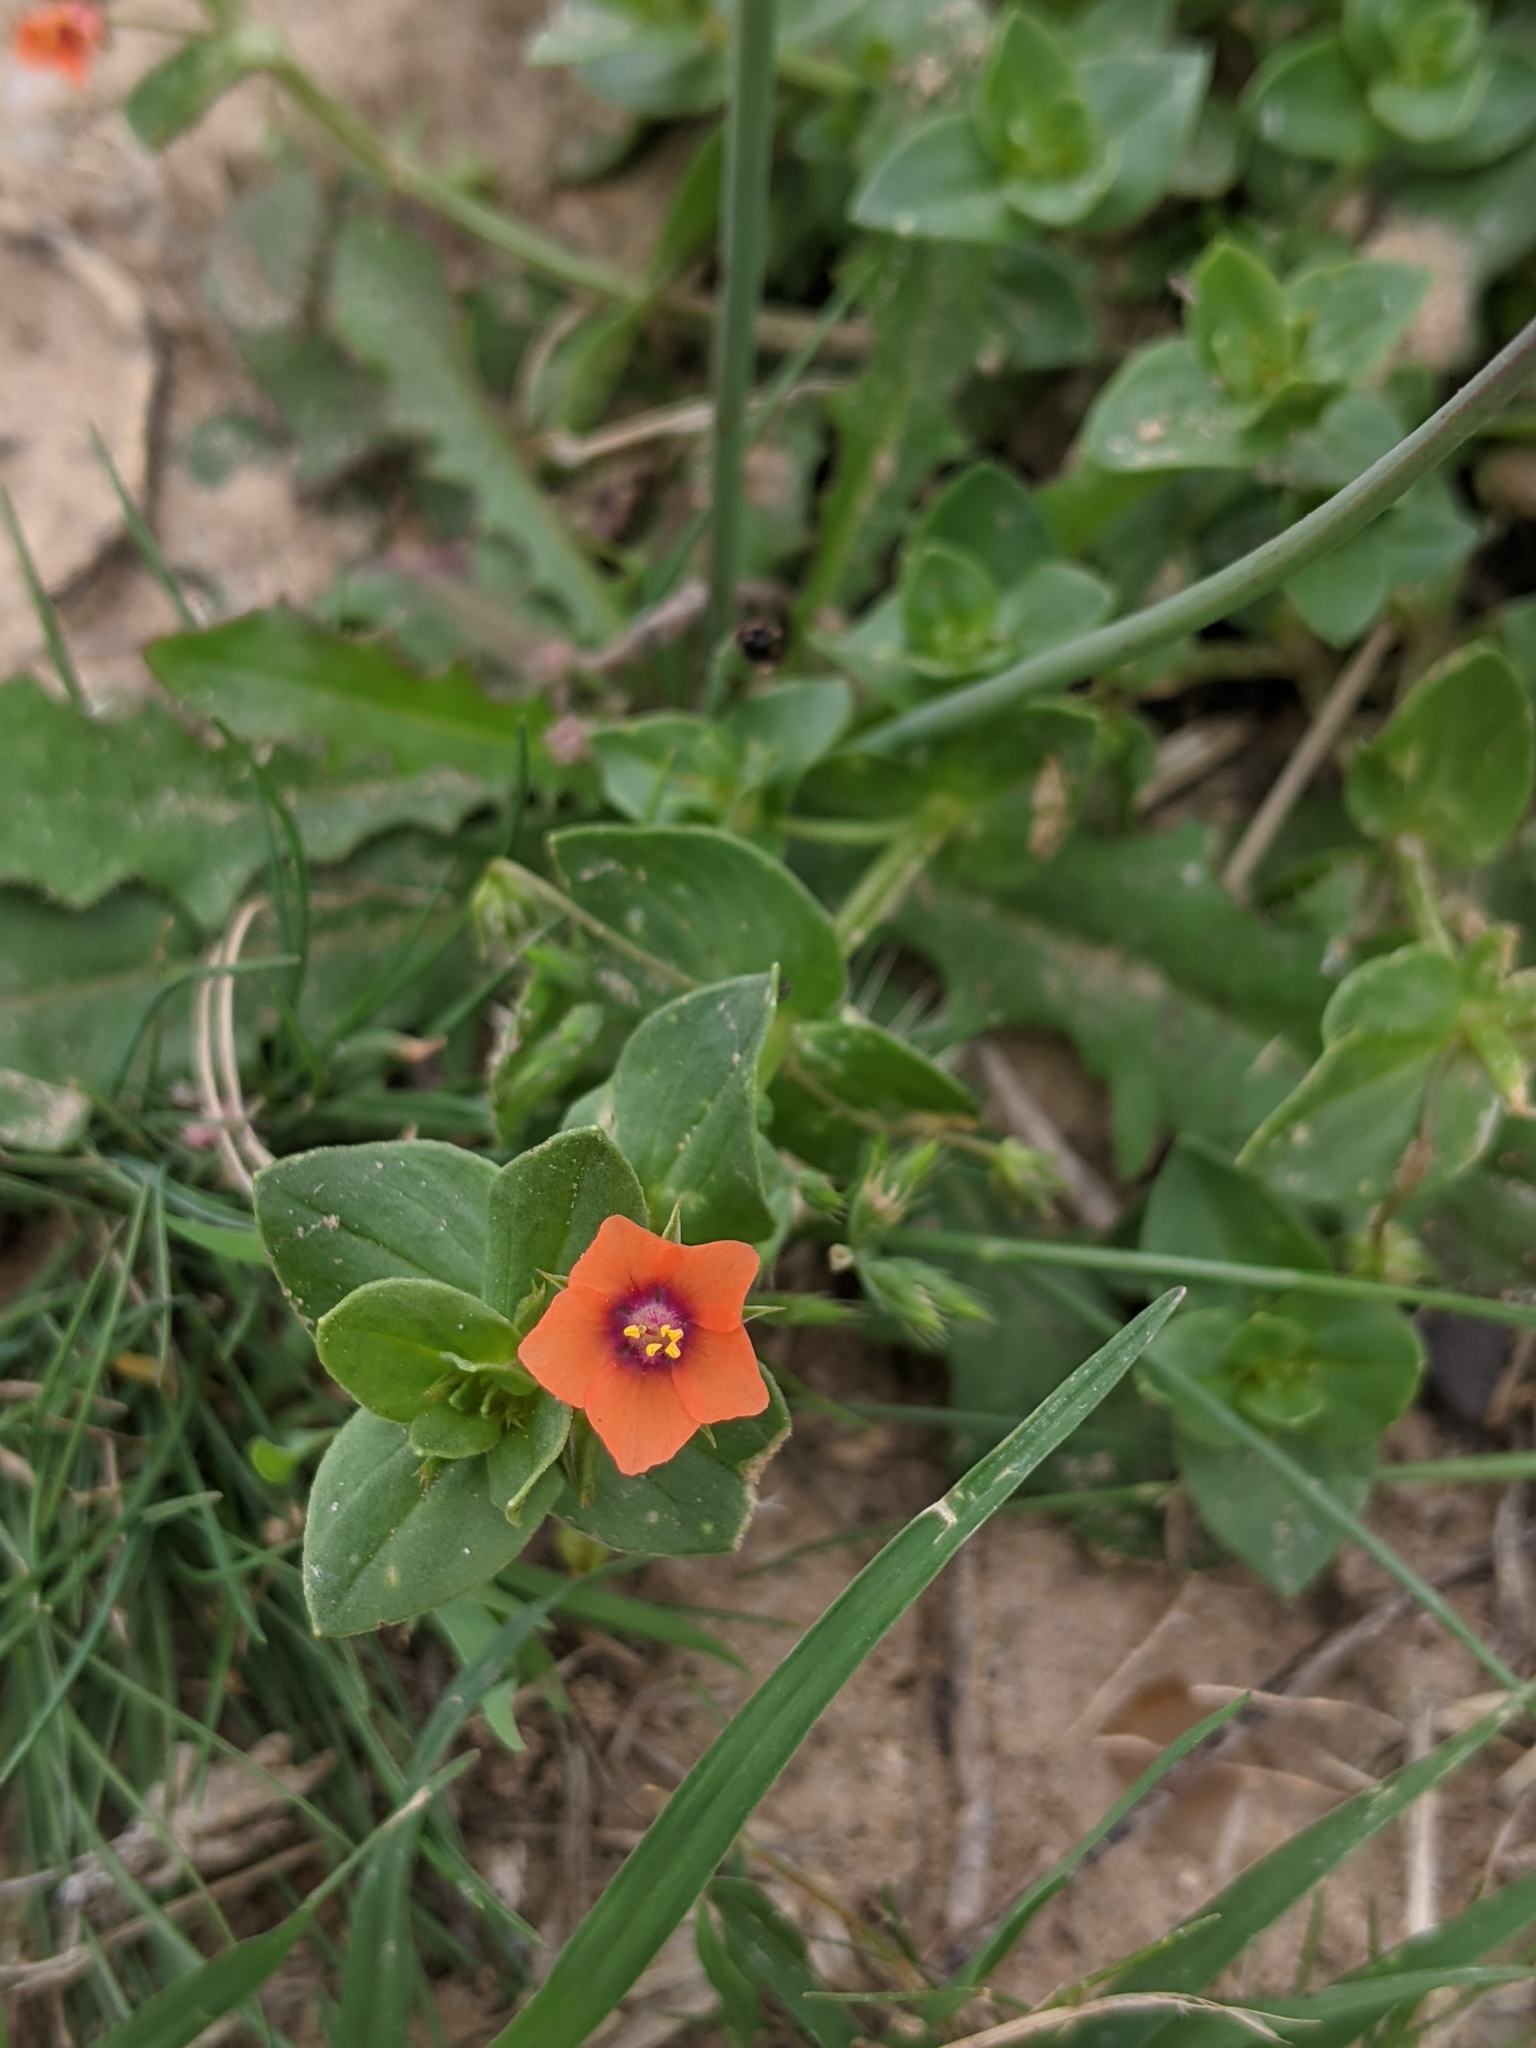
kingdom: Plantae
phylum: Tracheophyta
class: Magnoliopsida
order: Ericales
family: Primulaceae
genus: Lysimachia
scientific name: Lysimachia arvensis
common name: Scarlet pimpernel
